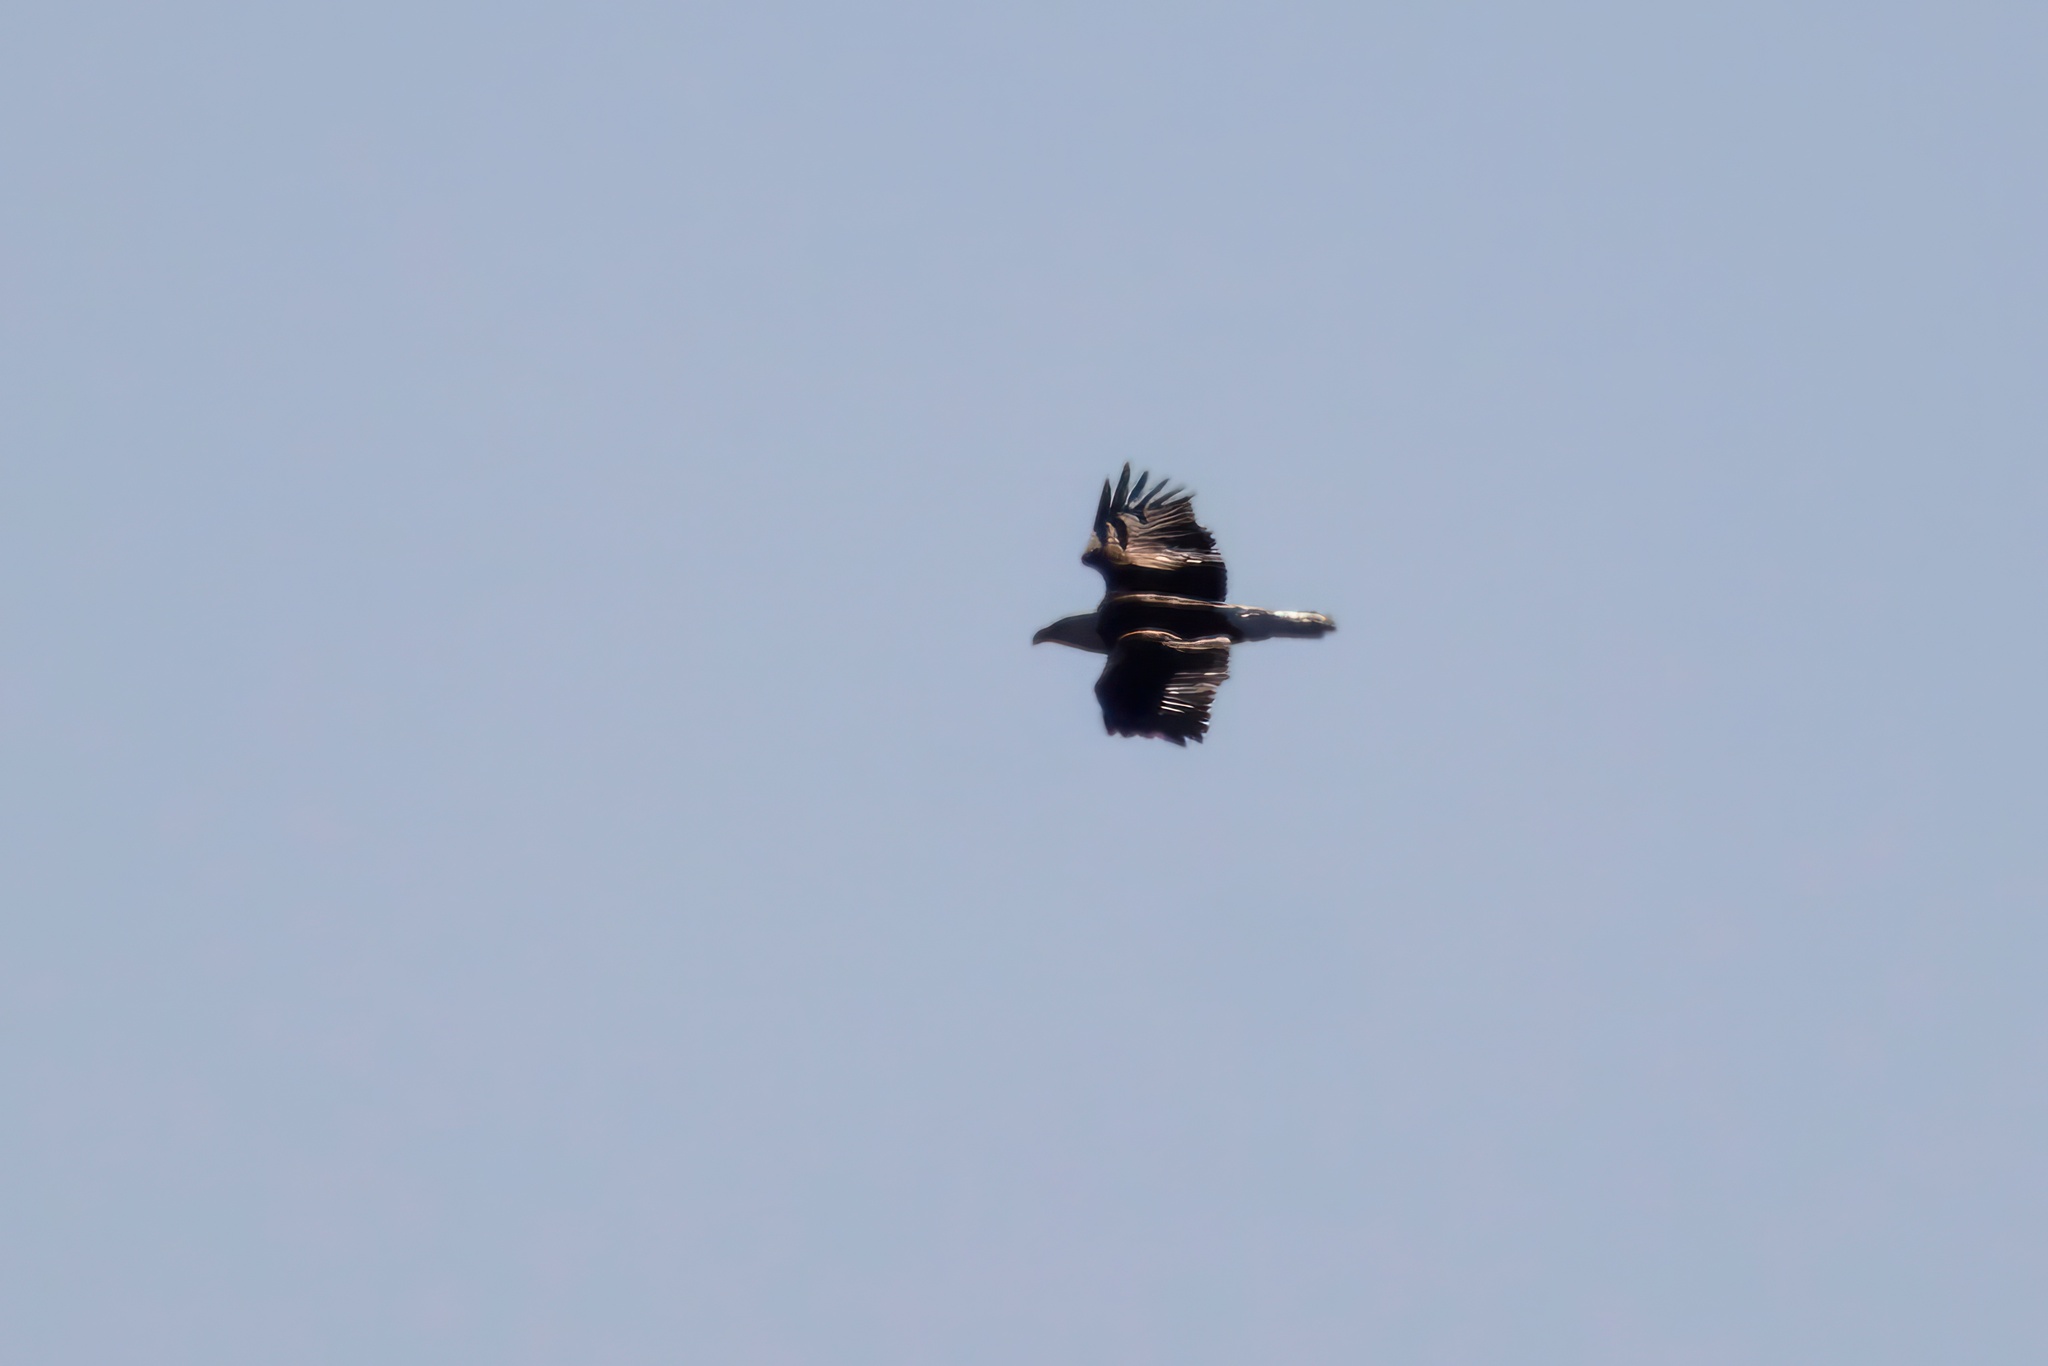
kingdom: Animalia
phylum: Chordata
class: Aves
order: Accipitriformes
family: Accipitridae
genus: Haliaeetus
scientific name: Haliaeetus leucocephalus
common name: Bald eagle
